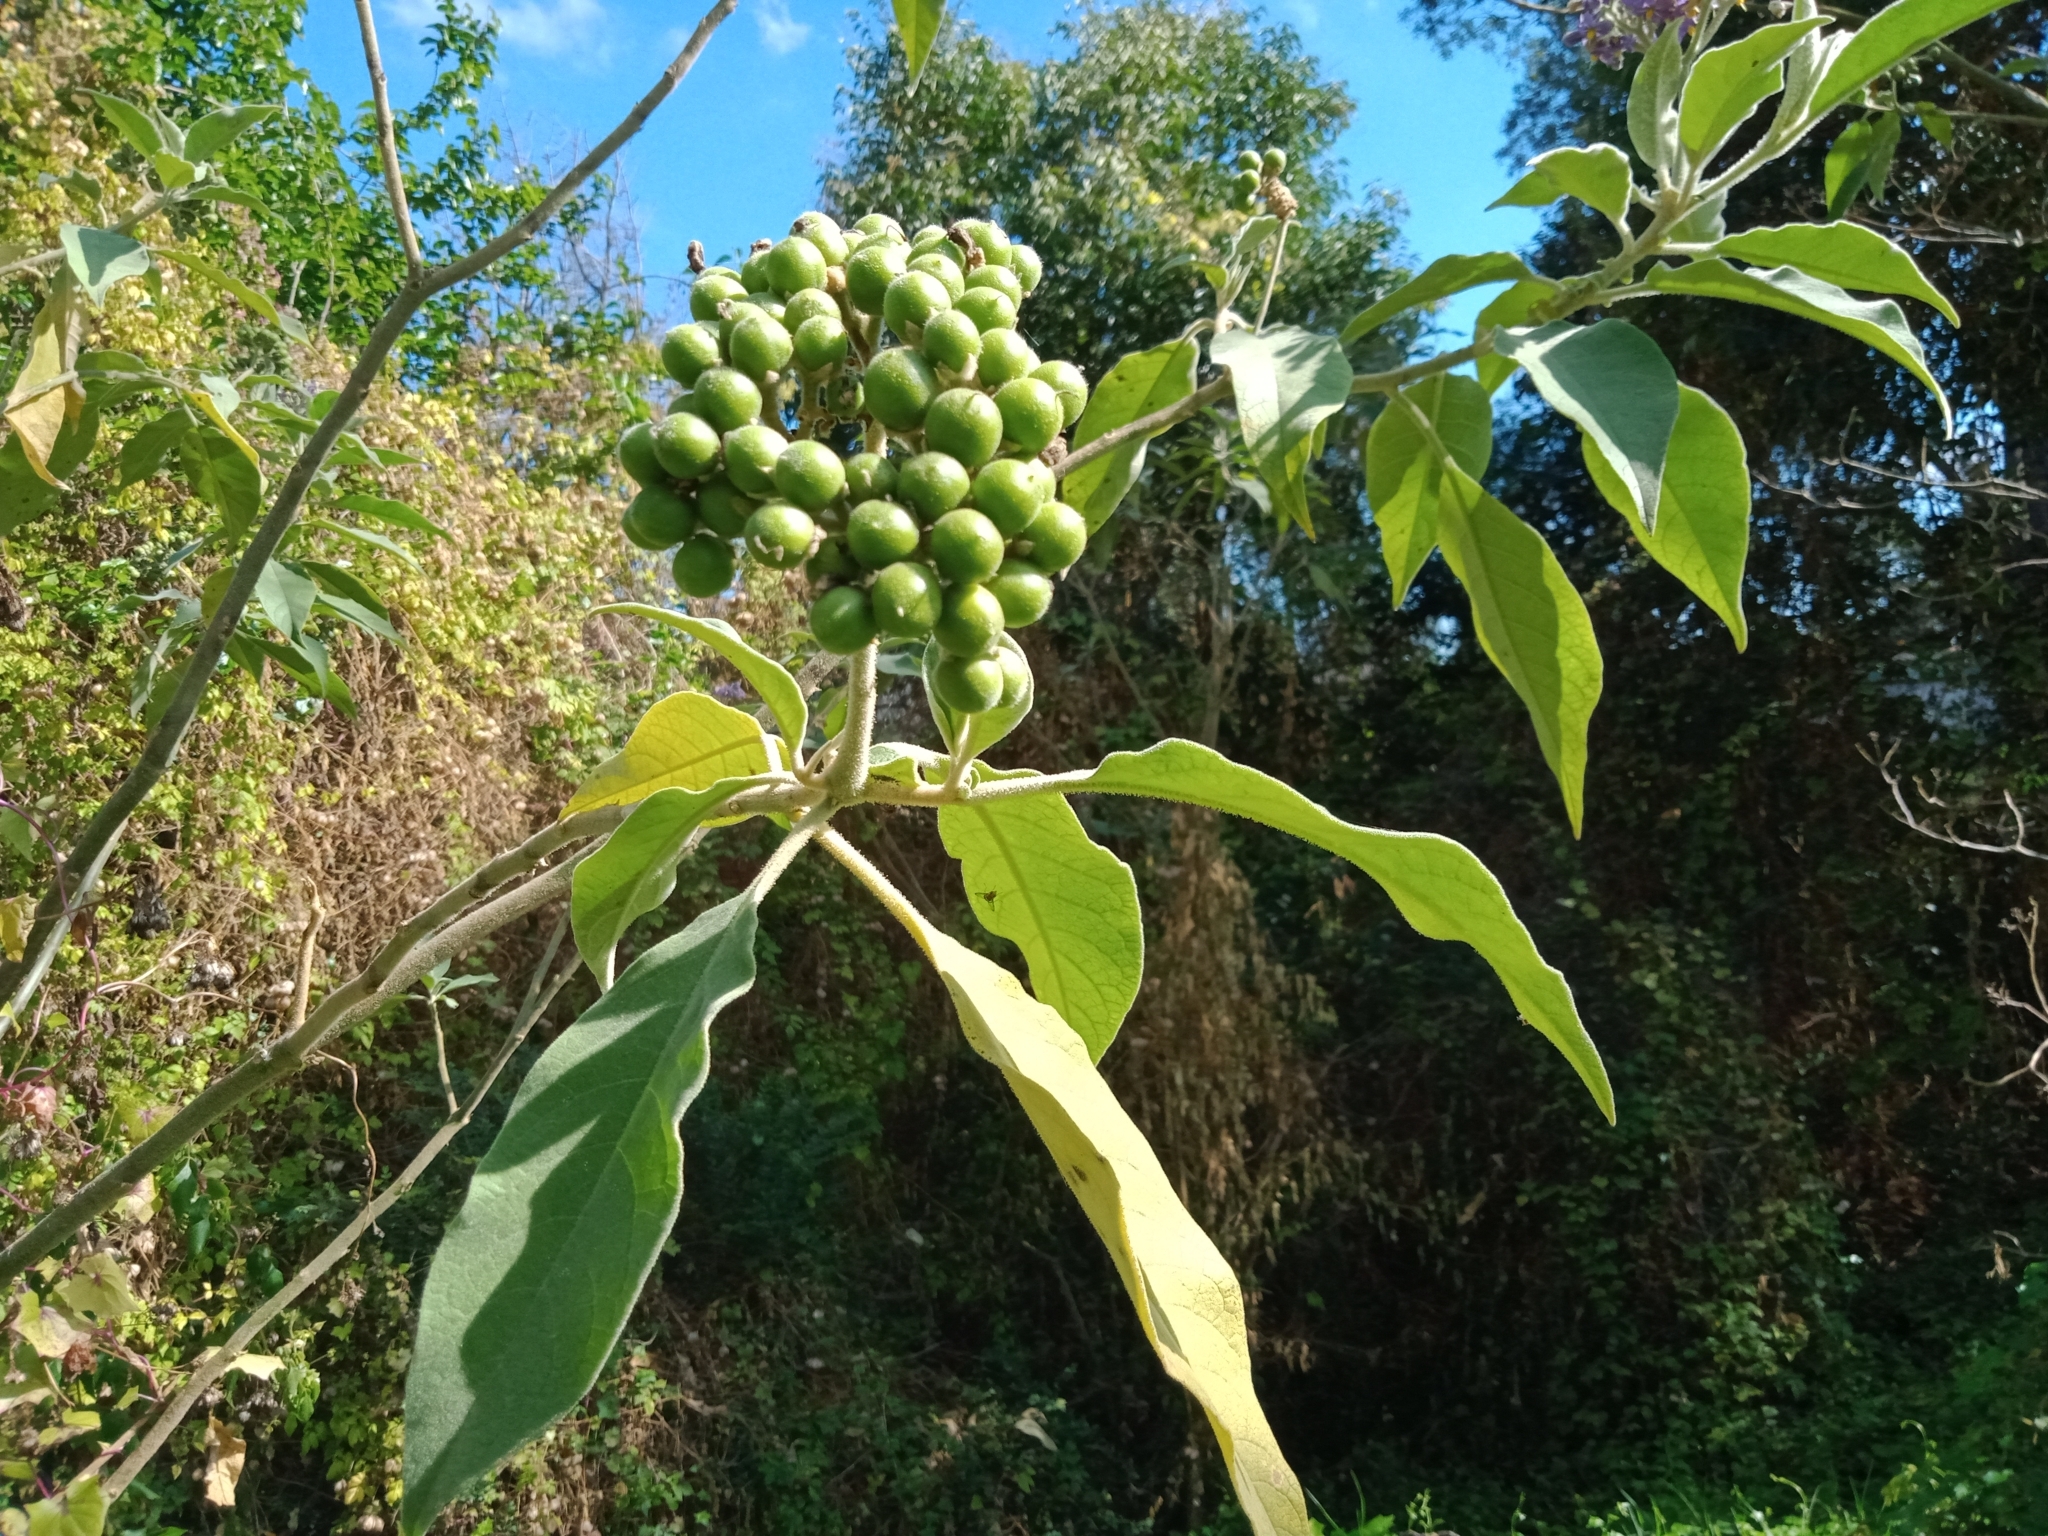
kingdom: Plantae
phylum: Tracheophyta
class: Magnoliopsida
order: Solanales
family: Solanaceae
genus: Solanum
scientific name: Solanum mauritianum
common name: Earleaf nightshade
